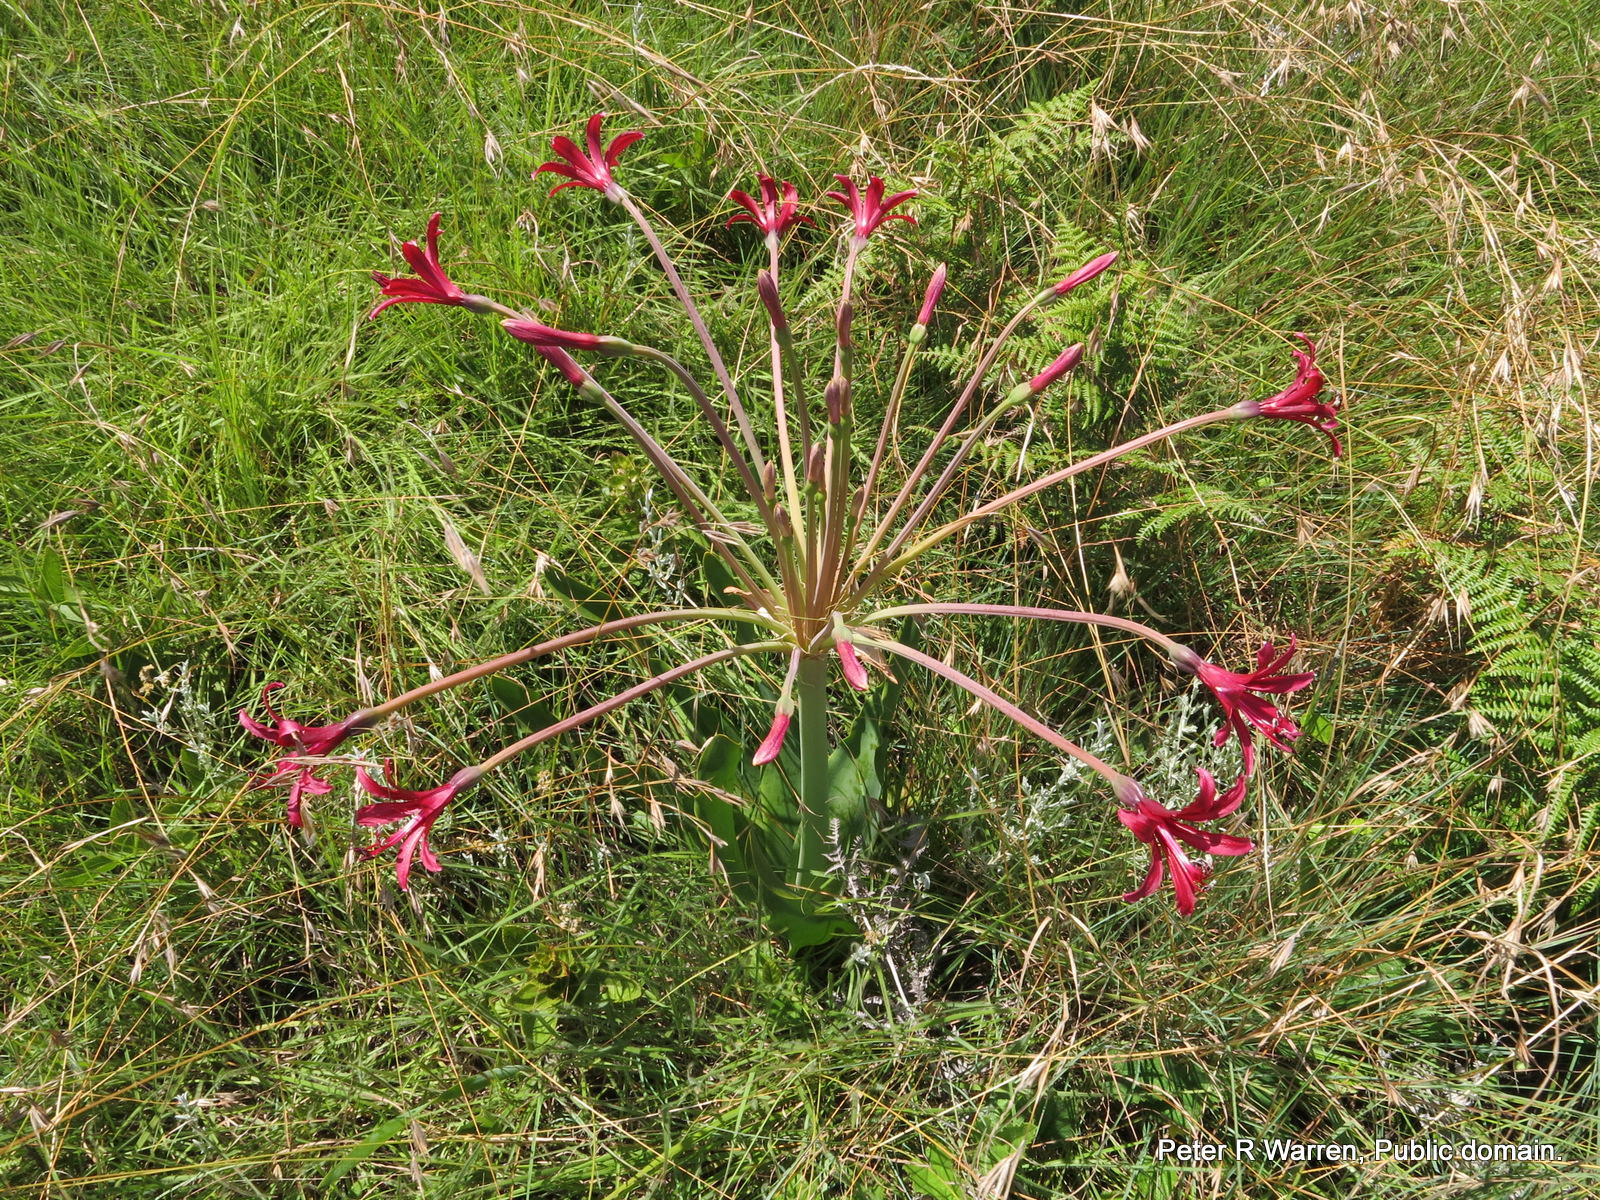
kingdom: Plantae
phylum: Tracheophyta
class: Liliopsida
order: Asparagales
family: Amaryllidaceae
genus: Brunsvigia
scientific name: Brunsvigia undulata
